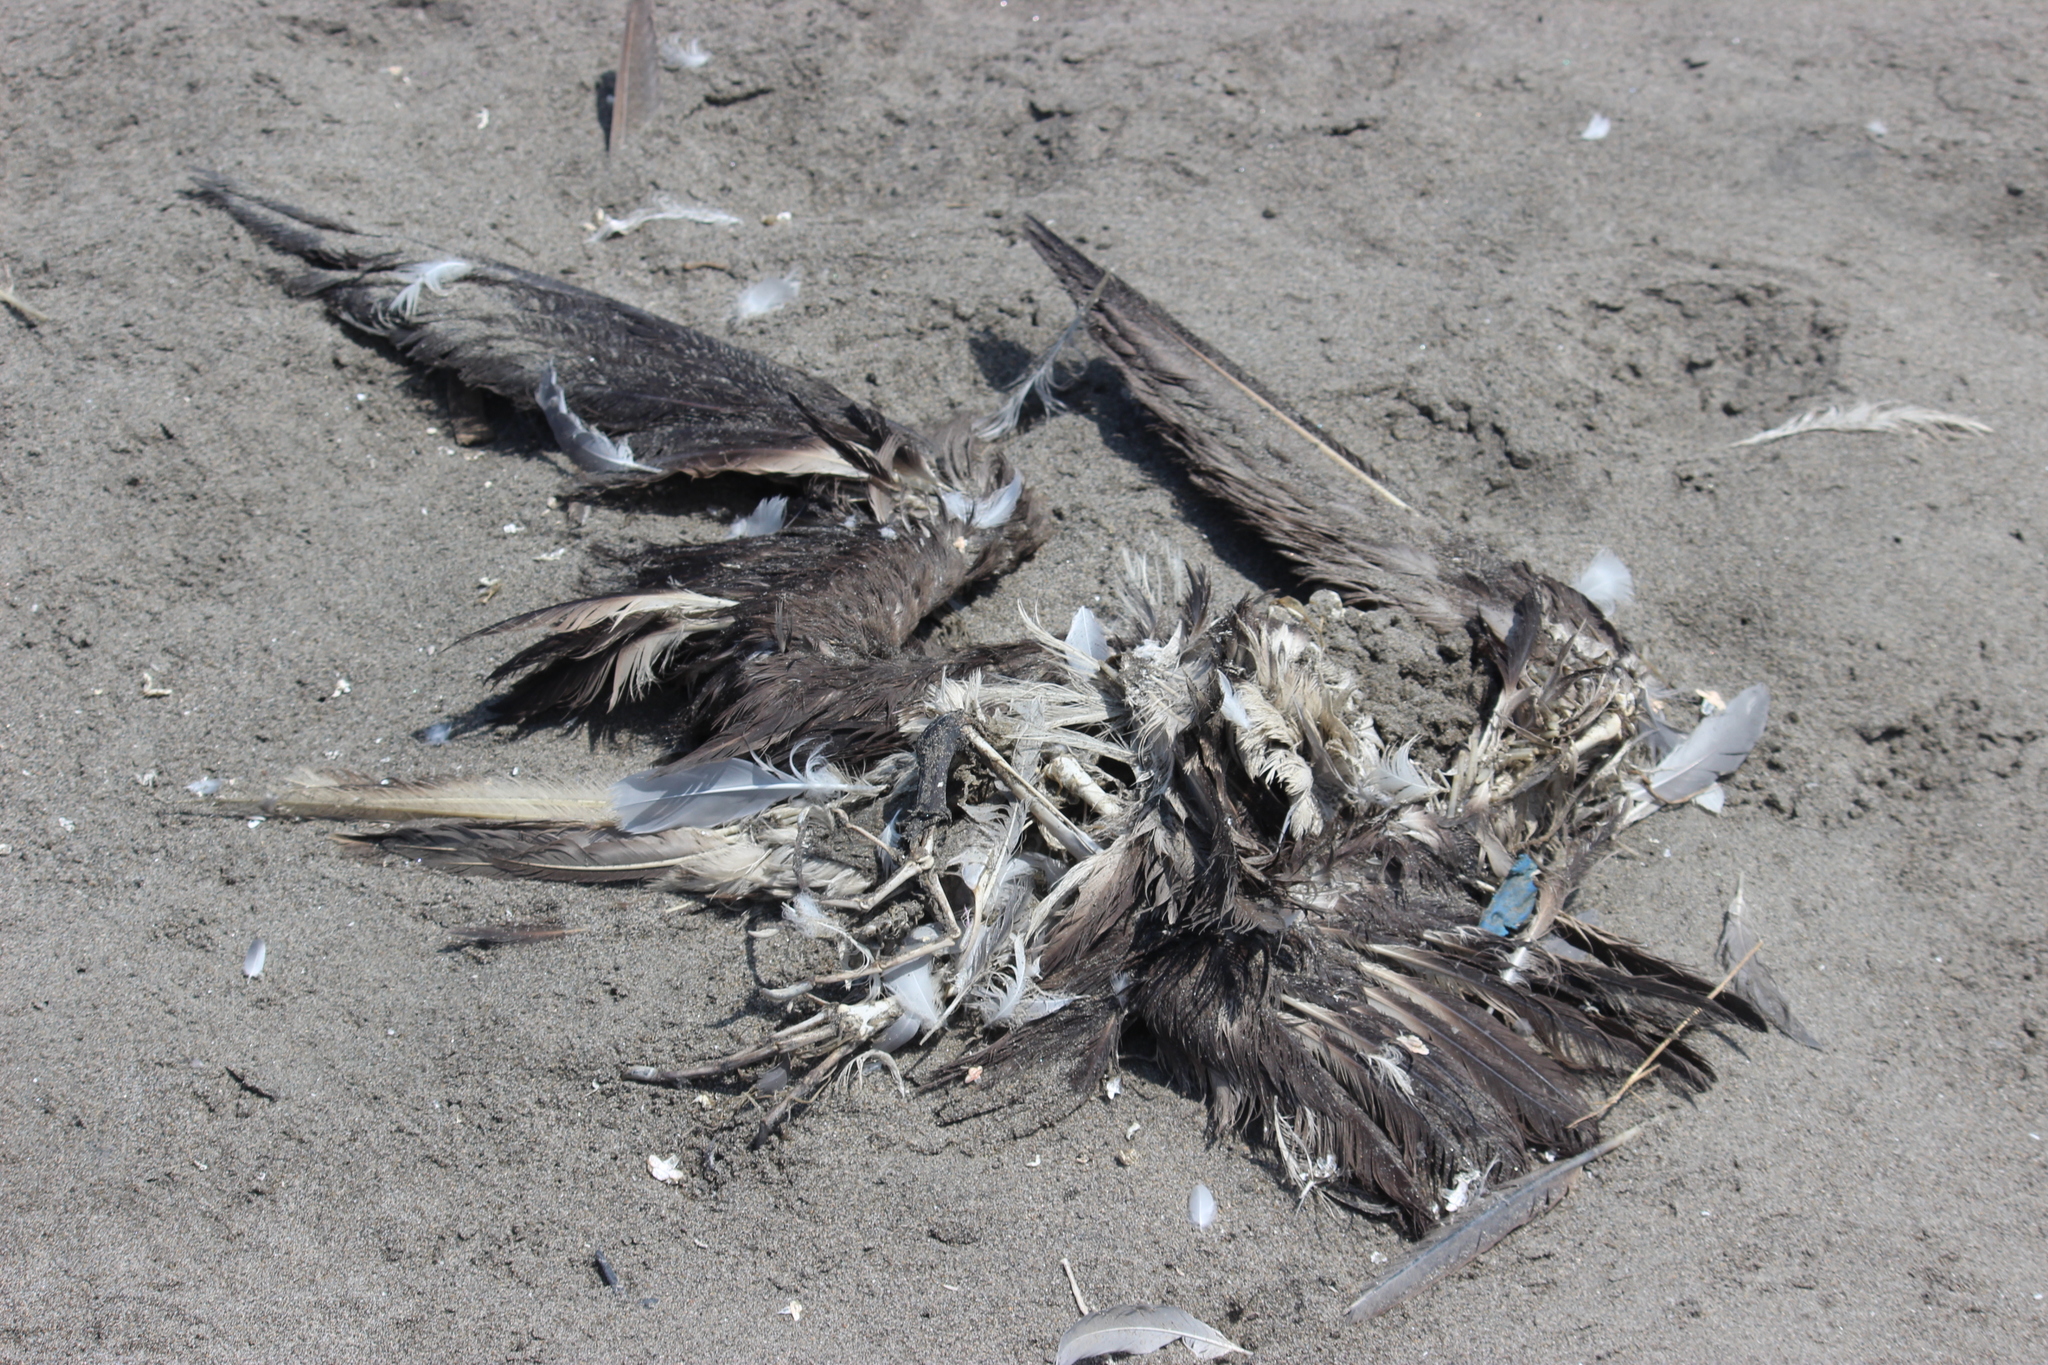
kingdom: Animalia
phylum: Chordata
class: Aves
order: Suliformes
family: Sulidae
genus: Sula
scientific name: Sula variegata
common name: Peruvian booby
